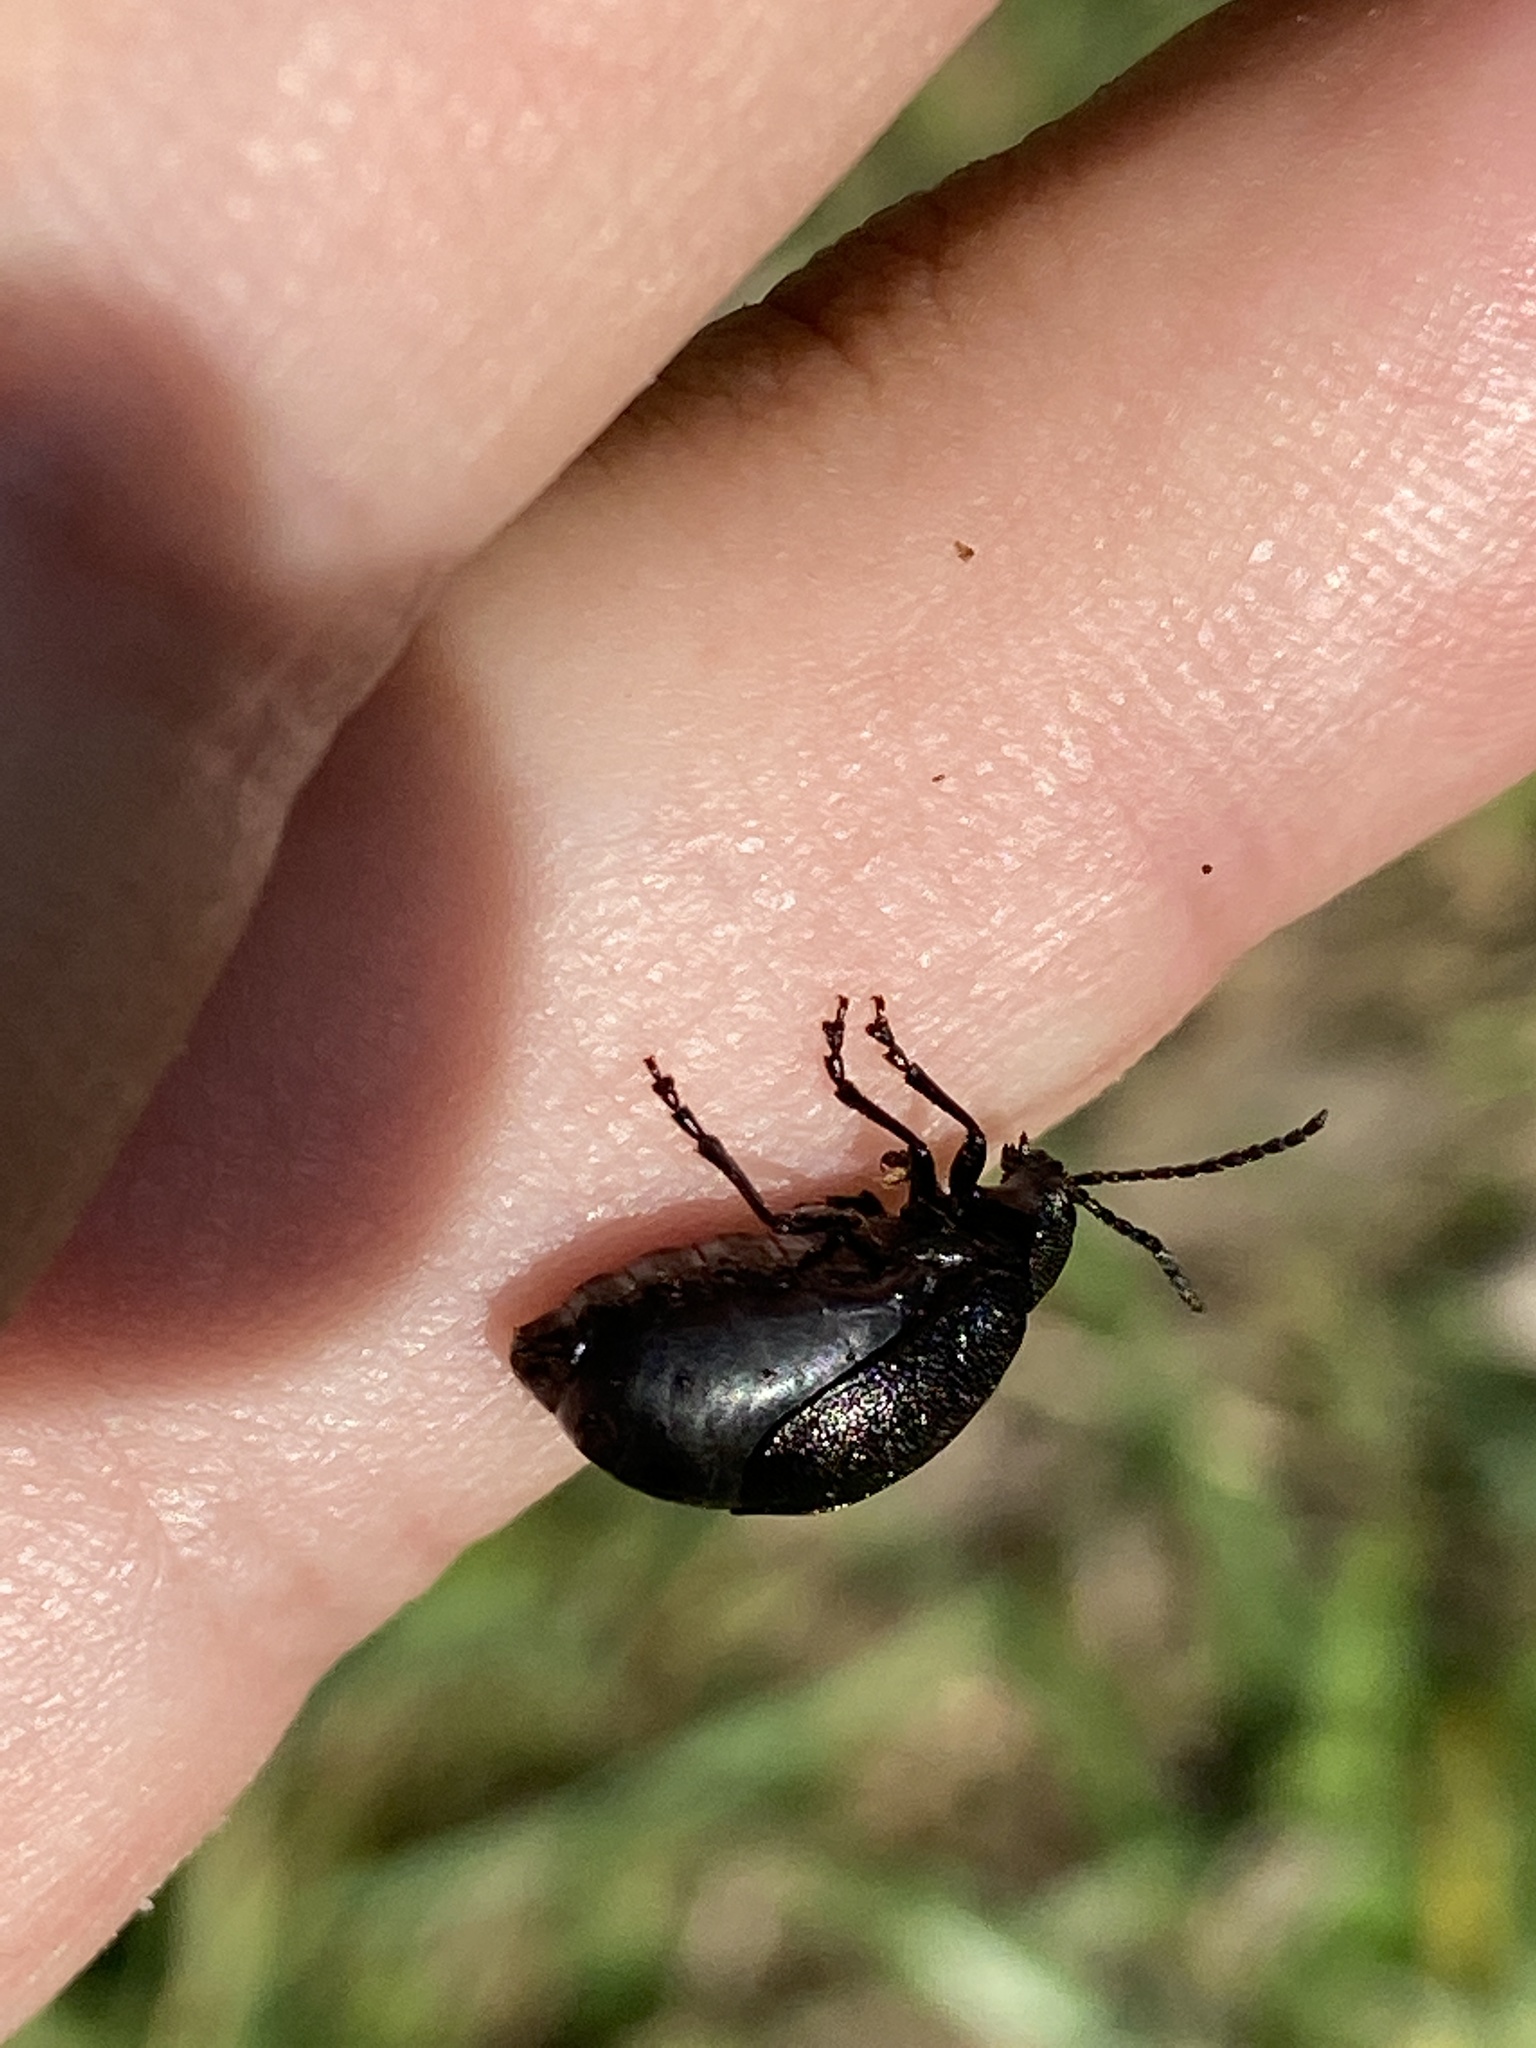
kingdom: Animalia
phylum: Arthropoda
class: Insecta
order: Coleoptera
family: Chrysomelidae
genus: Galeruca
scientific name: Galeruca tanaceti
